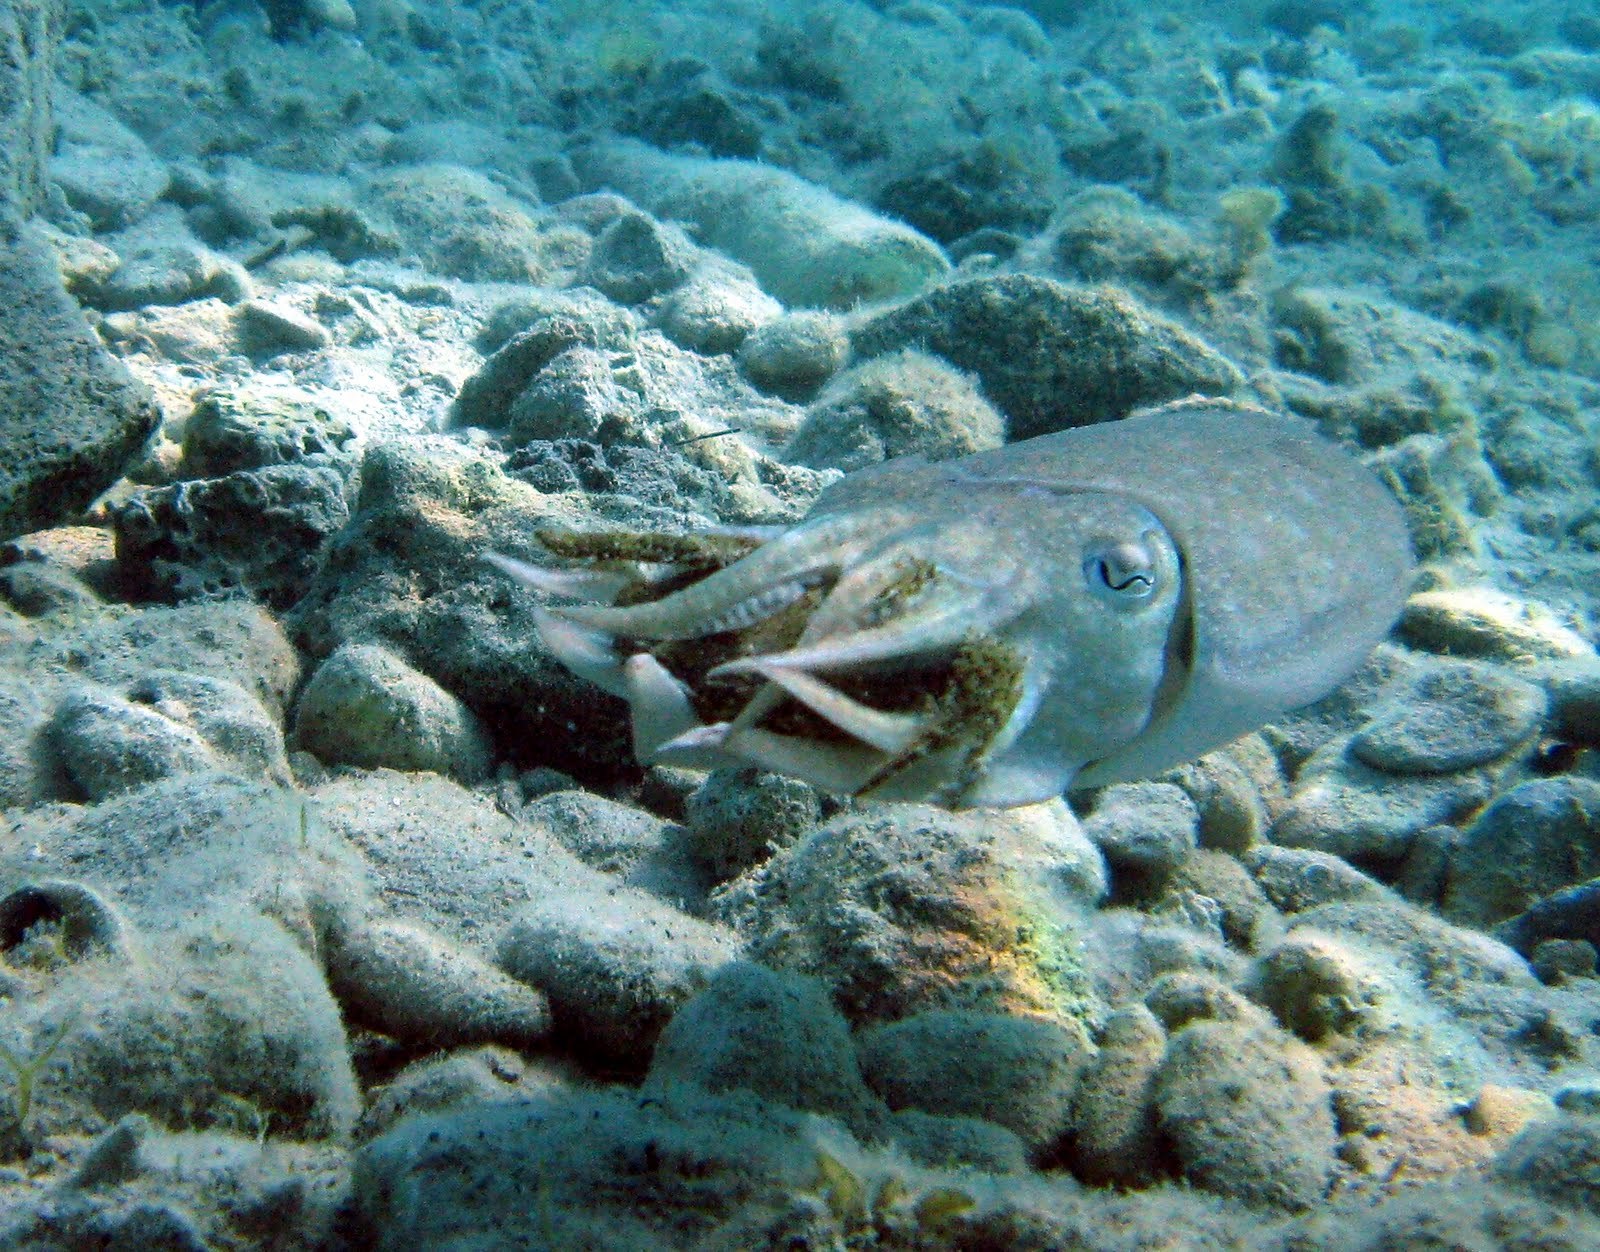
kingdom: Animalia
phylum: Mollusca
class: Cephalopoda
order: Sepiida
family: Sepiidae
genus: Sepia
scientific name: Sepia officinalis
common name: Common cuttlefish
